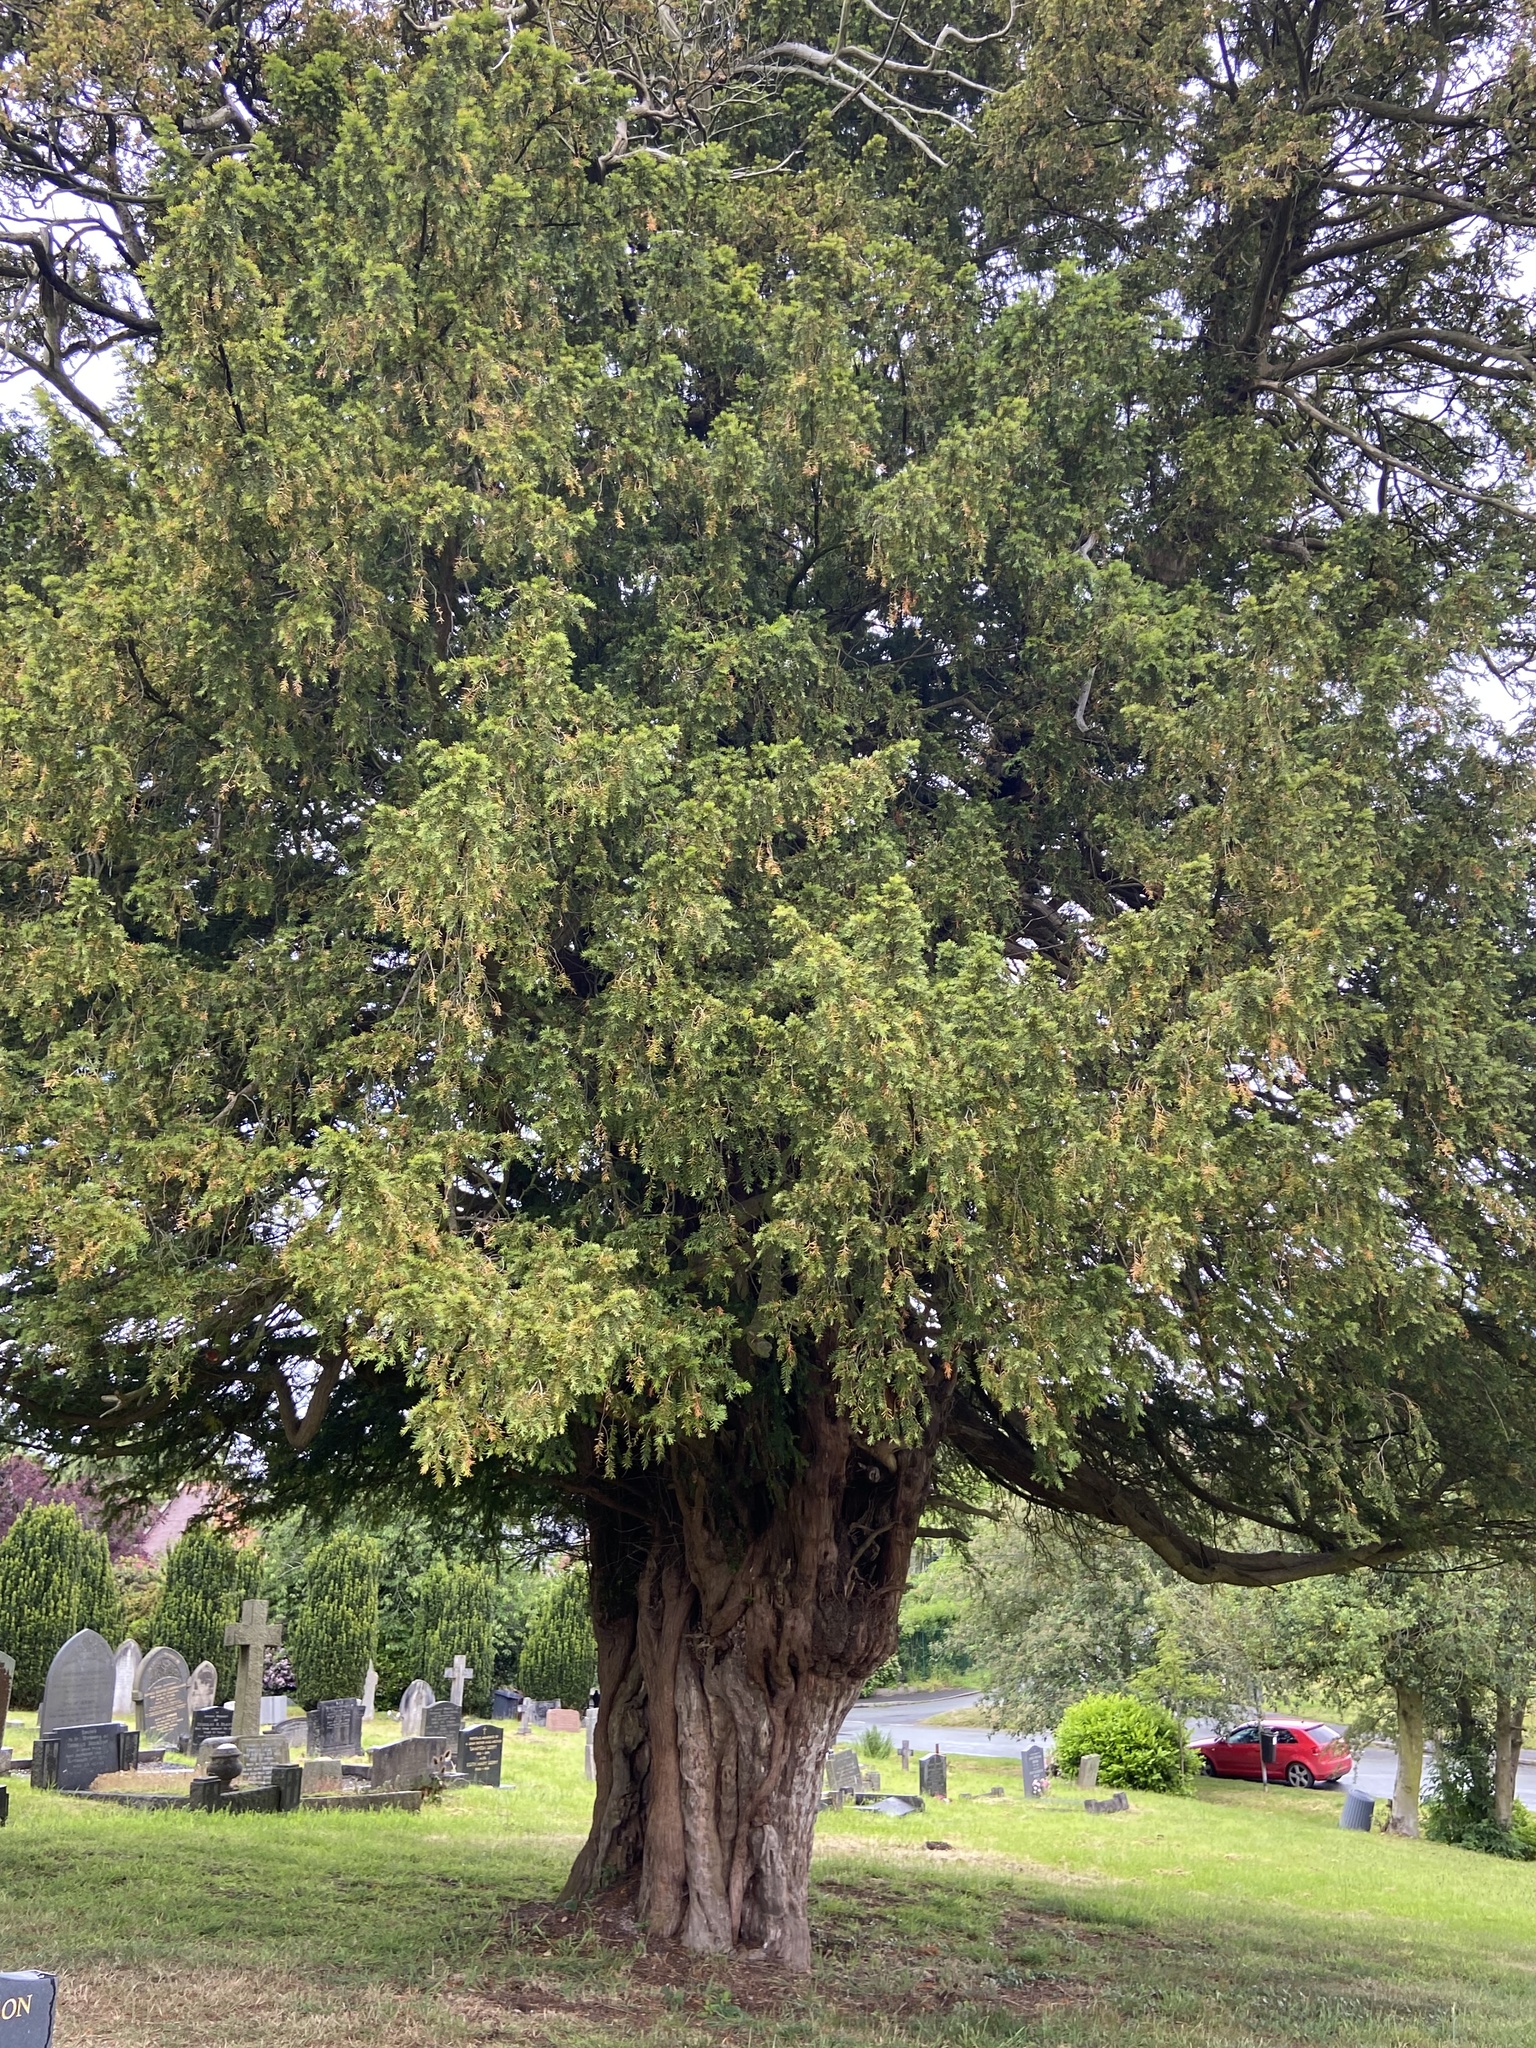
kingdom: Plantae
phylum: Tracheophyta
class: Pinopsida
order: Pinales
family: Taxaceae
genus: Taxus
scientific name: Taxus baccata
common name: Yew
